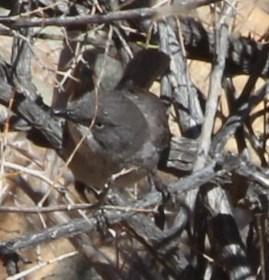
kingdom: Animalia
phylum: Chordata
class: Aves
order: Passeriformes
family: Sylviidae
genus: Sylvia
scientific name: Sylvia layardi
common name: Layard's warbler
